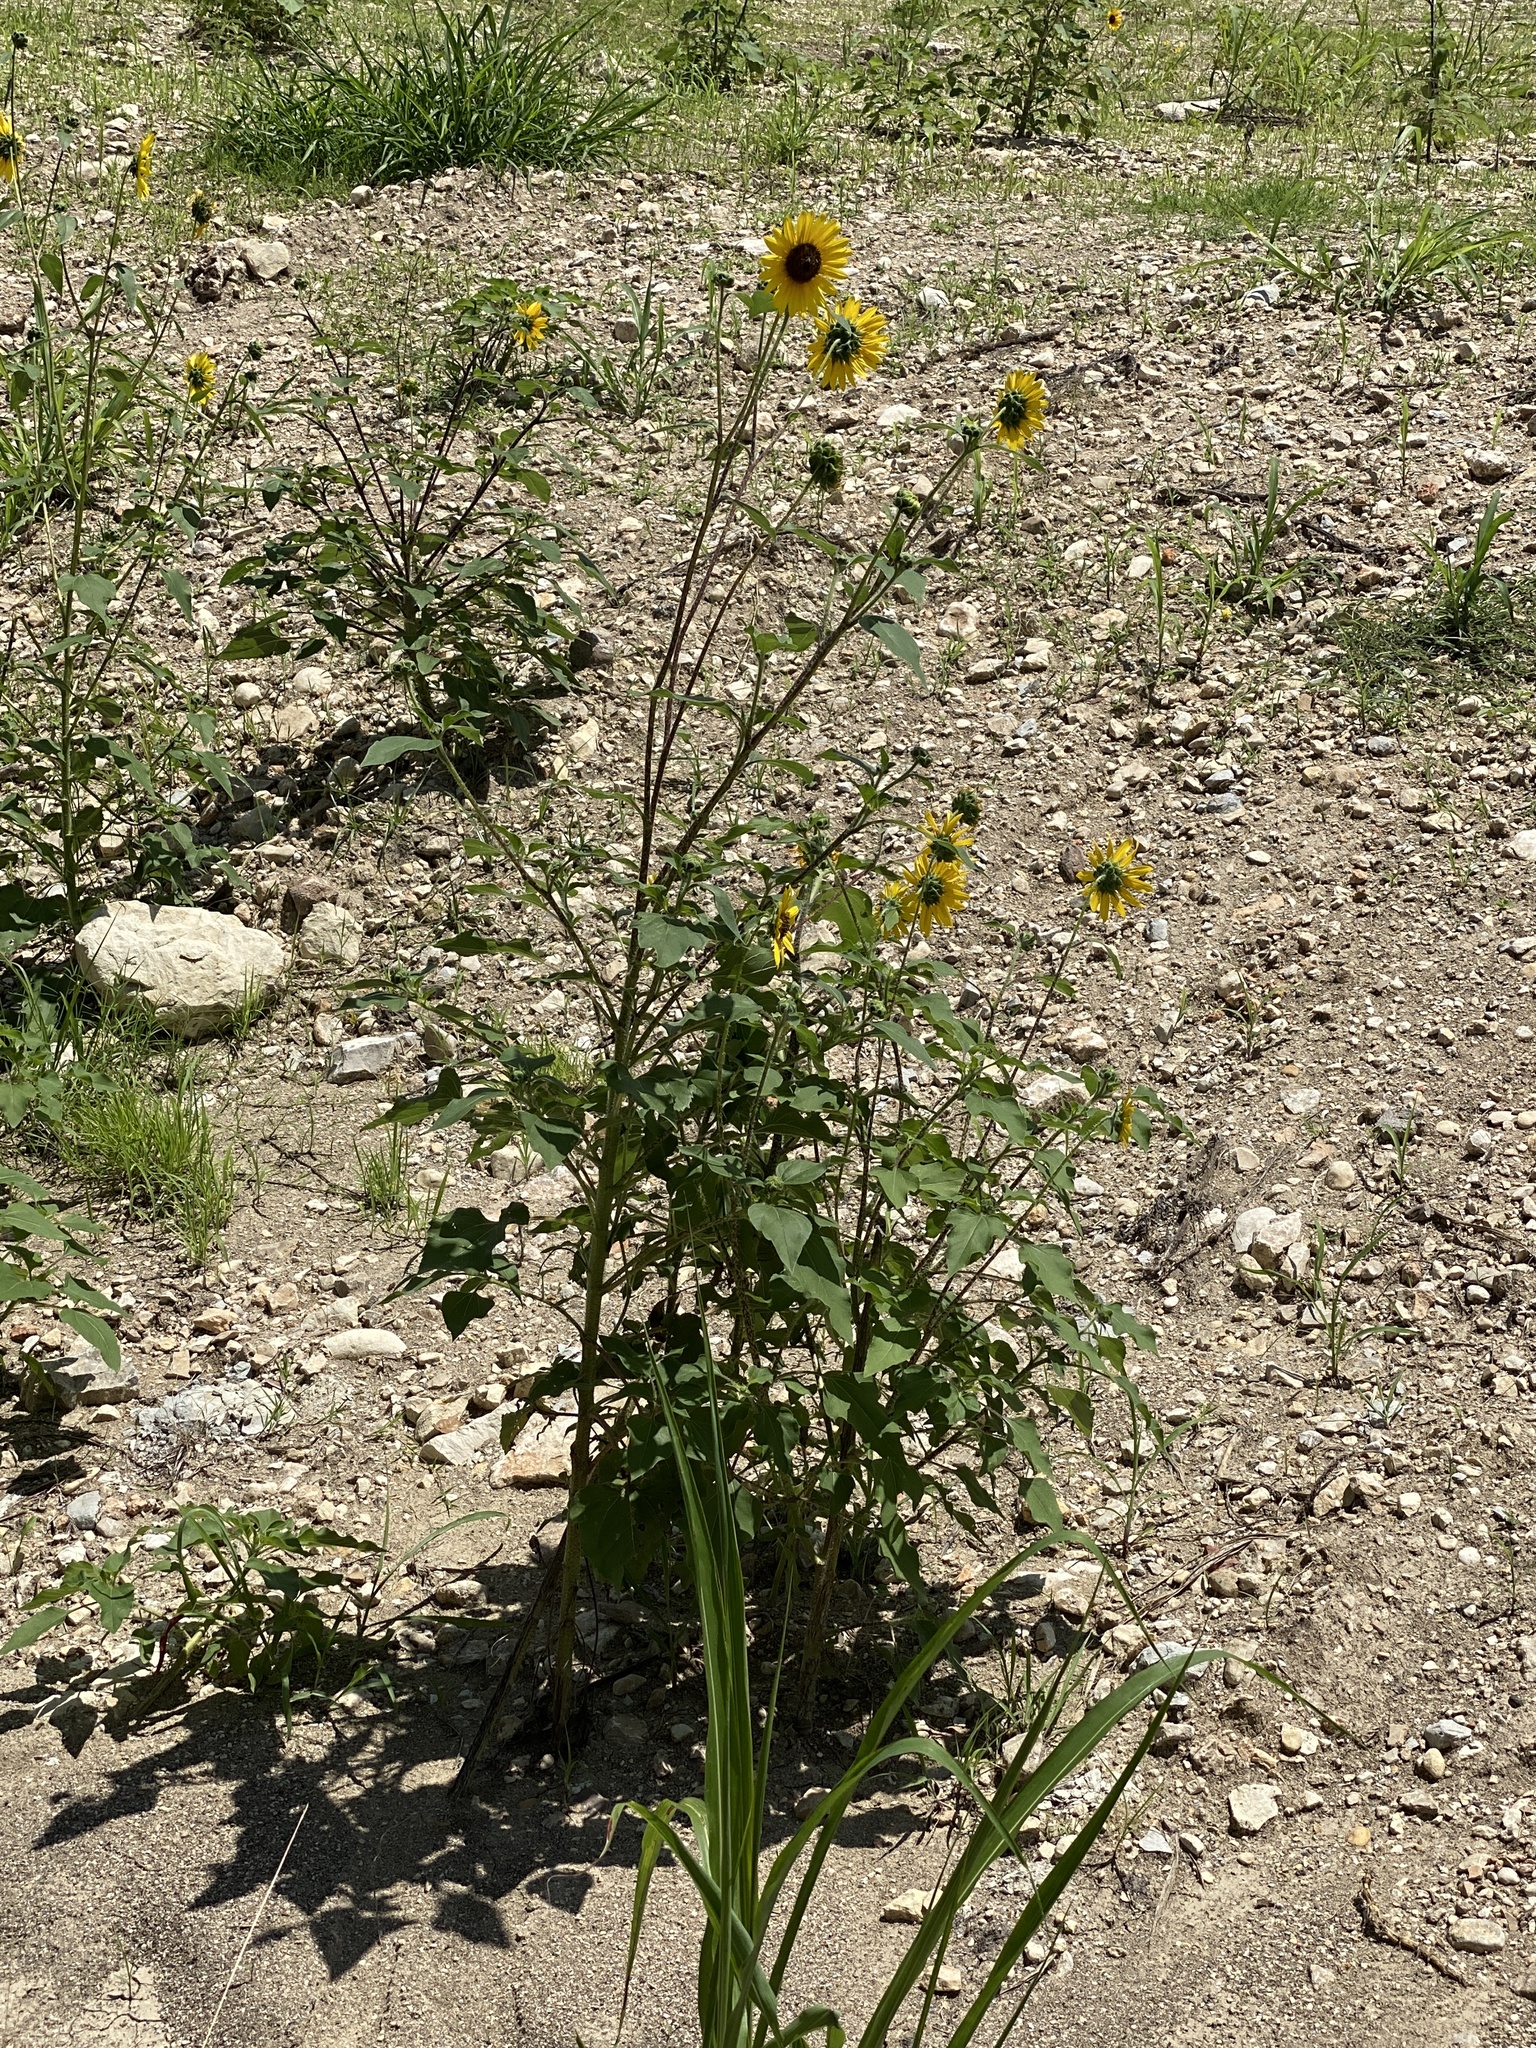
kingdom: Plantae
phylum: Tracheophyta
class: Magnoliopsida
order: Asterales
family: Asteraceae
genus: Helianthus
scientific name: Helianthus annuus
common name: Sunflower
